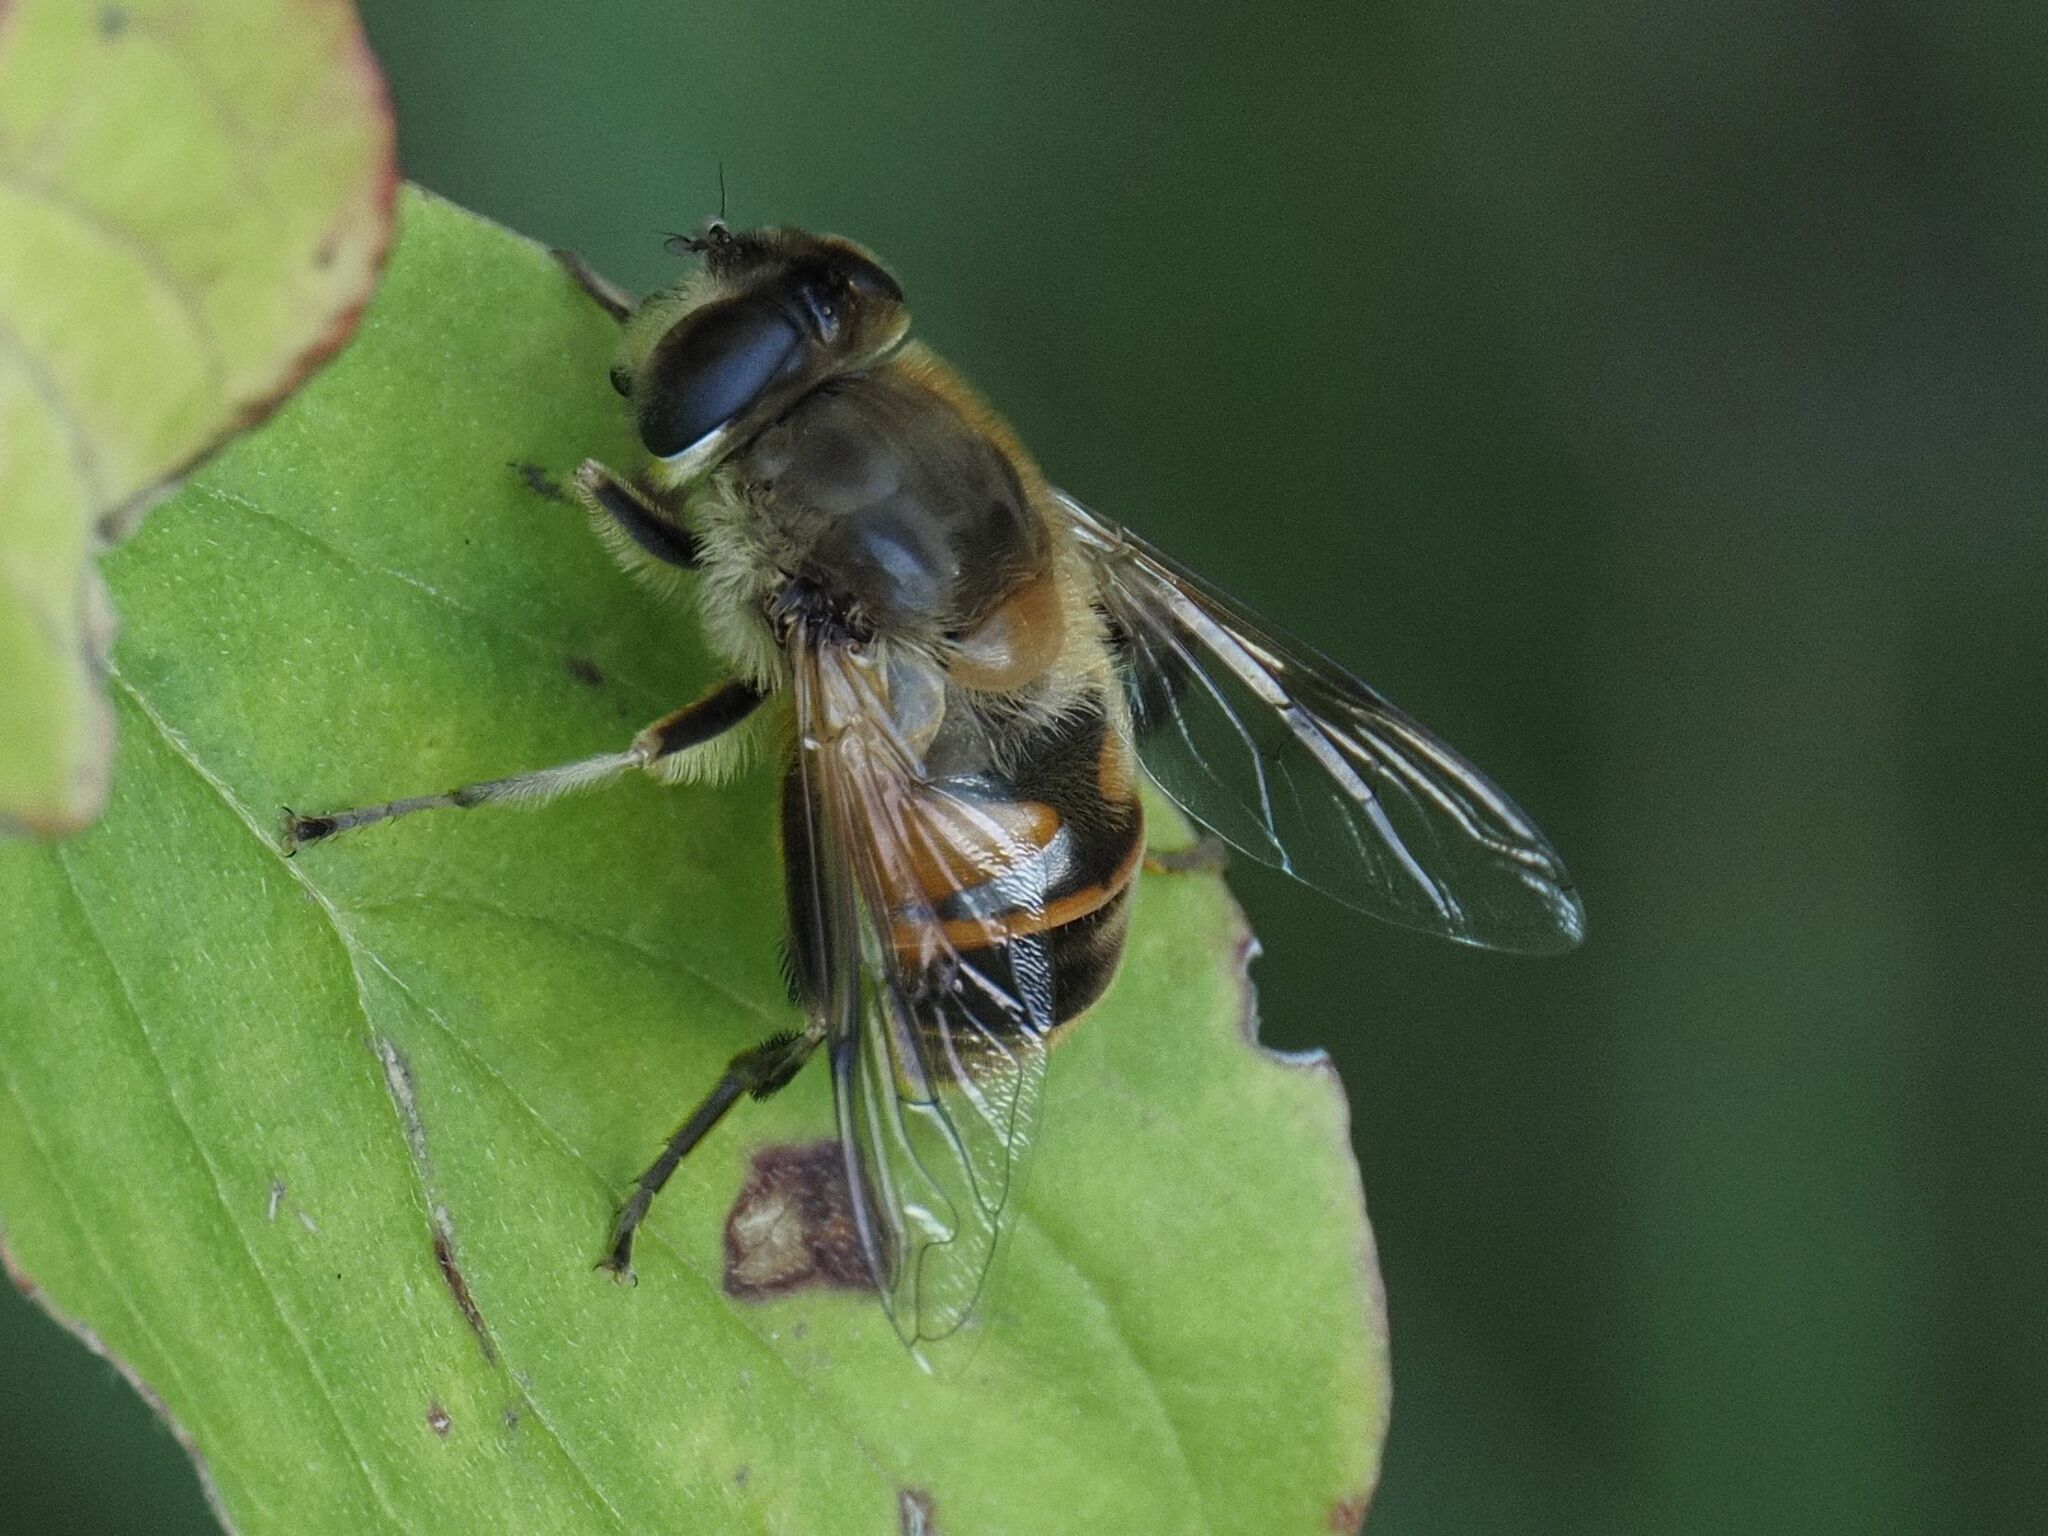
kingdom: Animalia
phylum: Arthropoda
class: Insecta
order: Diptera
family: Syrphidae
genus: Eristalis
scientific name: Eristalis tenax
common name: Drone fly
